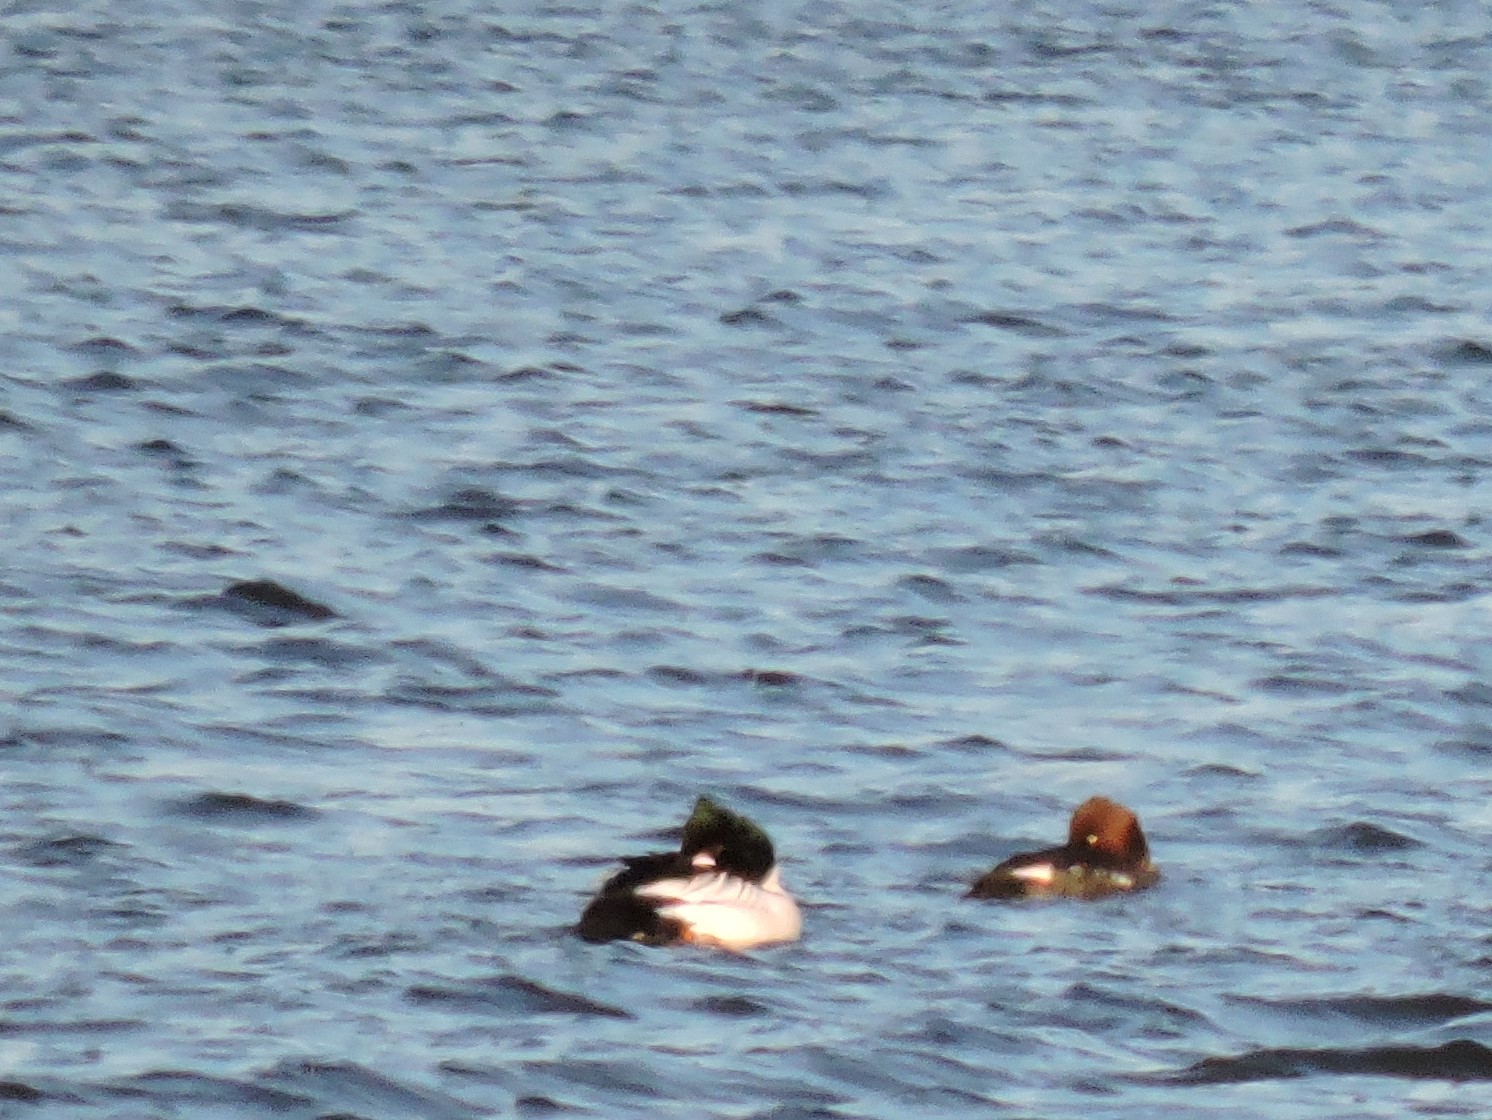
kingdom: Animalia
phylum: Chordata
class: Aves
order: Anseriformes
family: Anatidae
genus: Bucephala
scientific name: Bucephala clangula
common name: Common goldeneye
